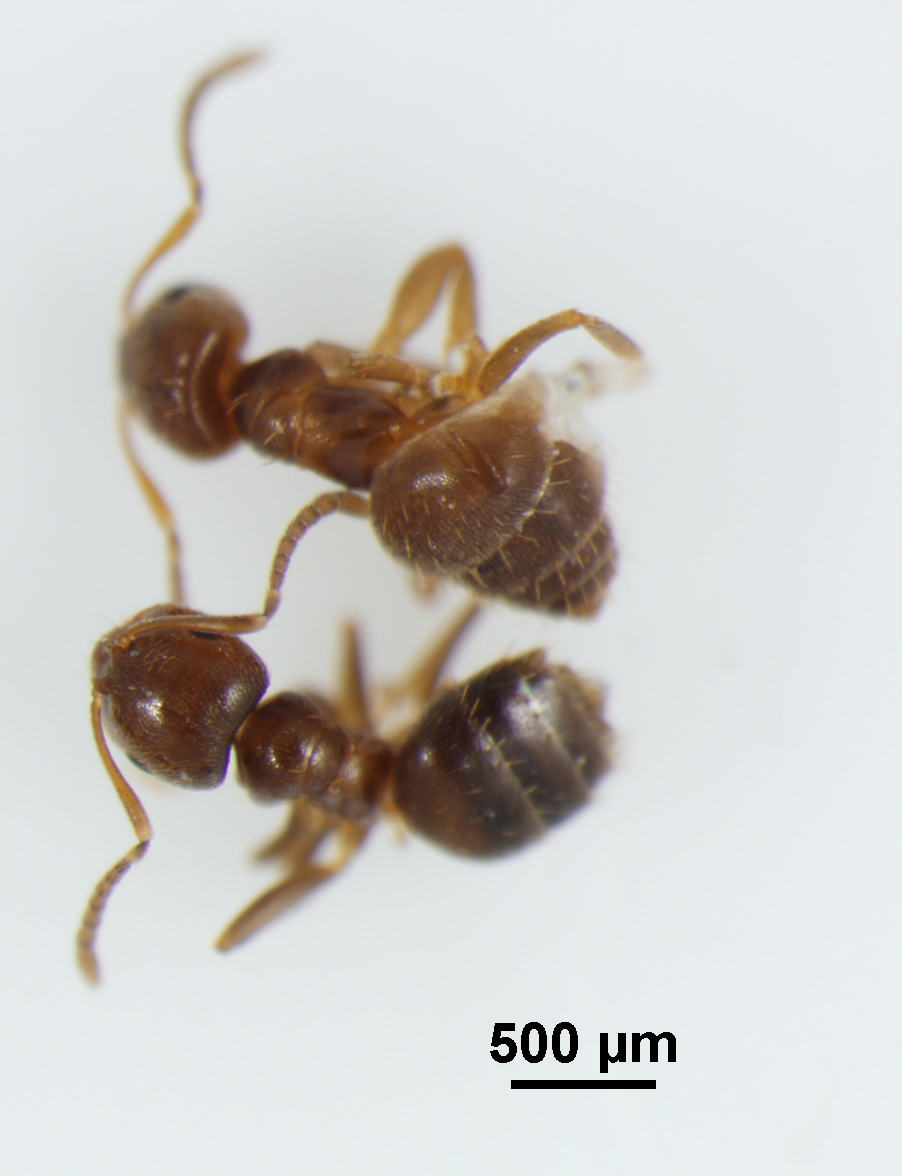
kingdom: Animalia
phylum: Arthropoda
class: Insecta
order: Hymenoptera
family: Formicidae
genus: Brachymyrmex
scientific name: Brachymyrmex obscurior
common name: Obscure rover ant
